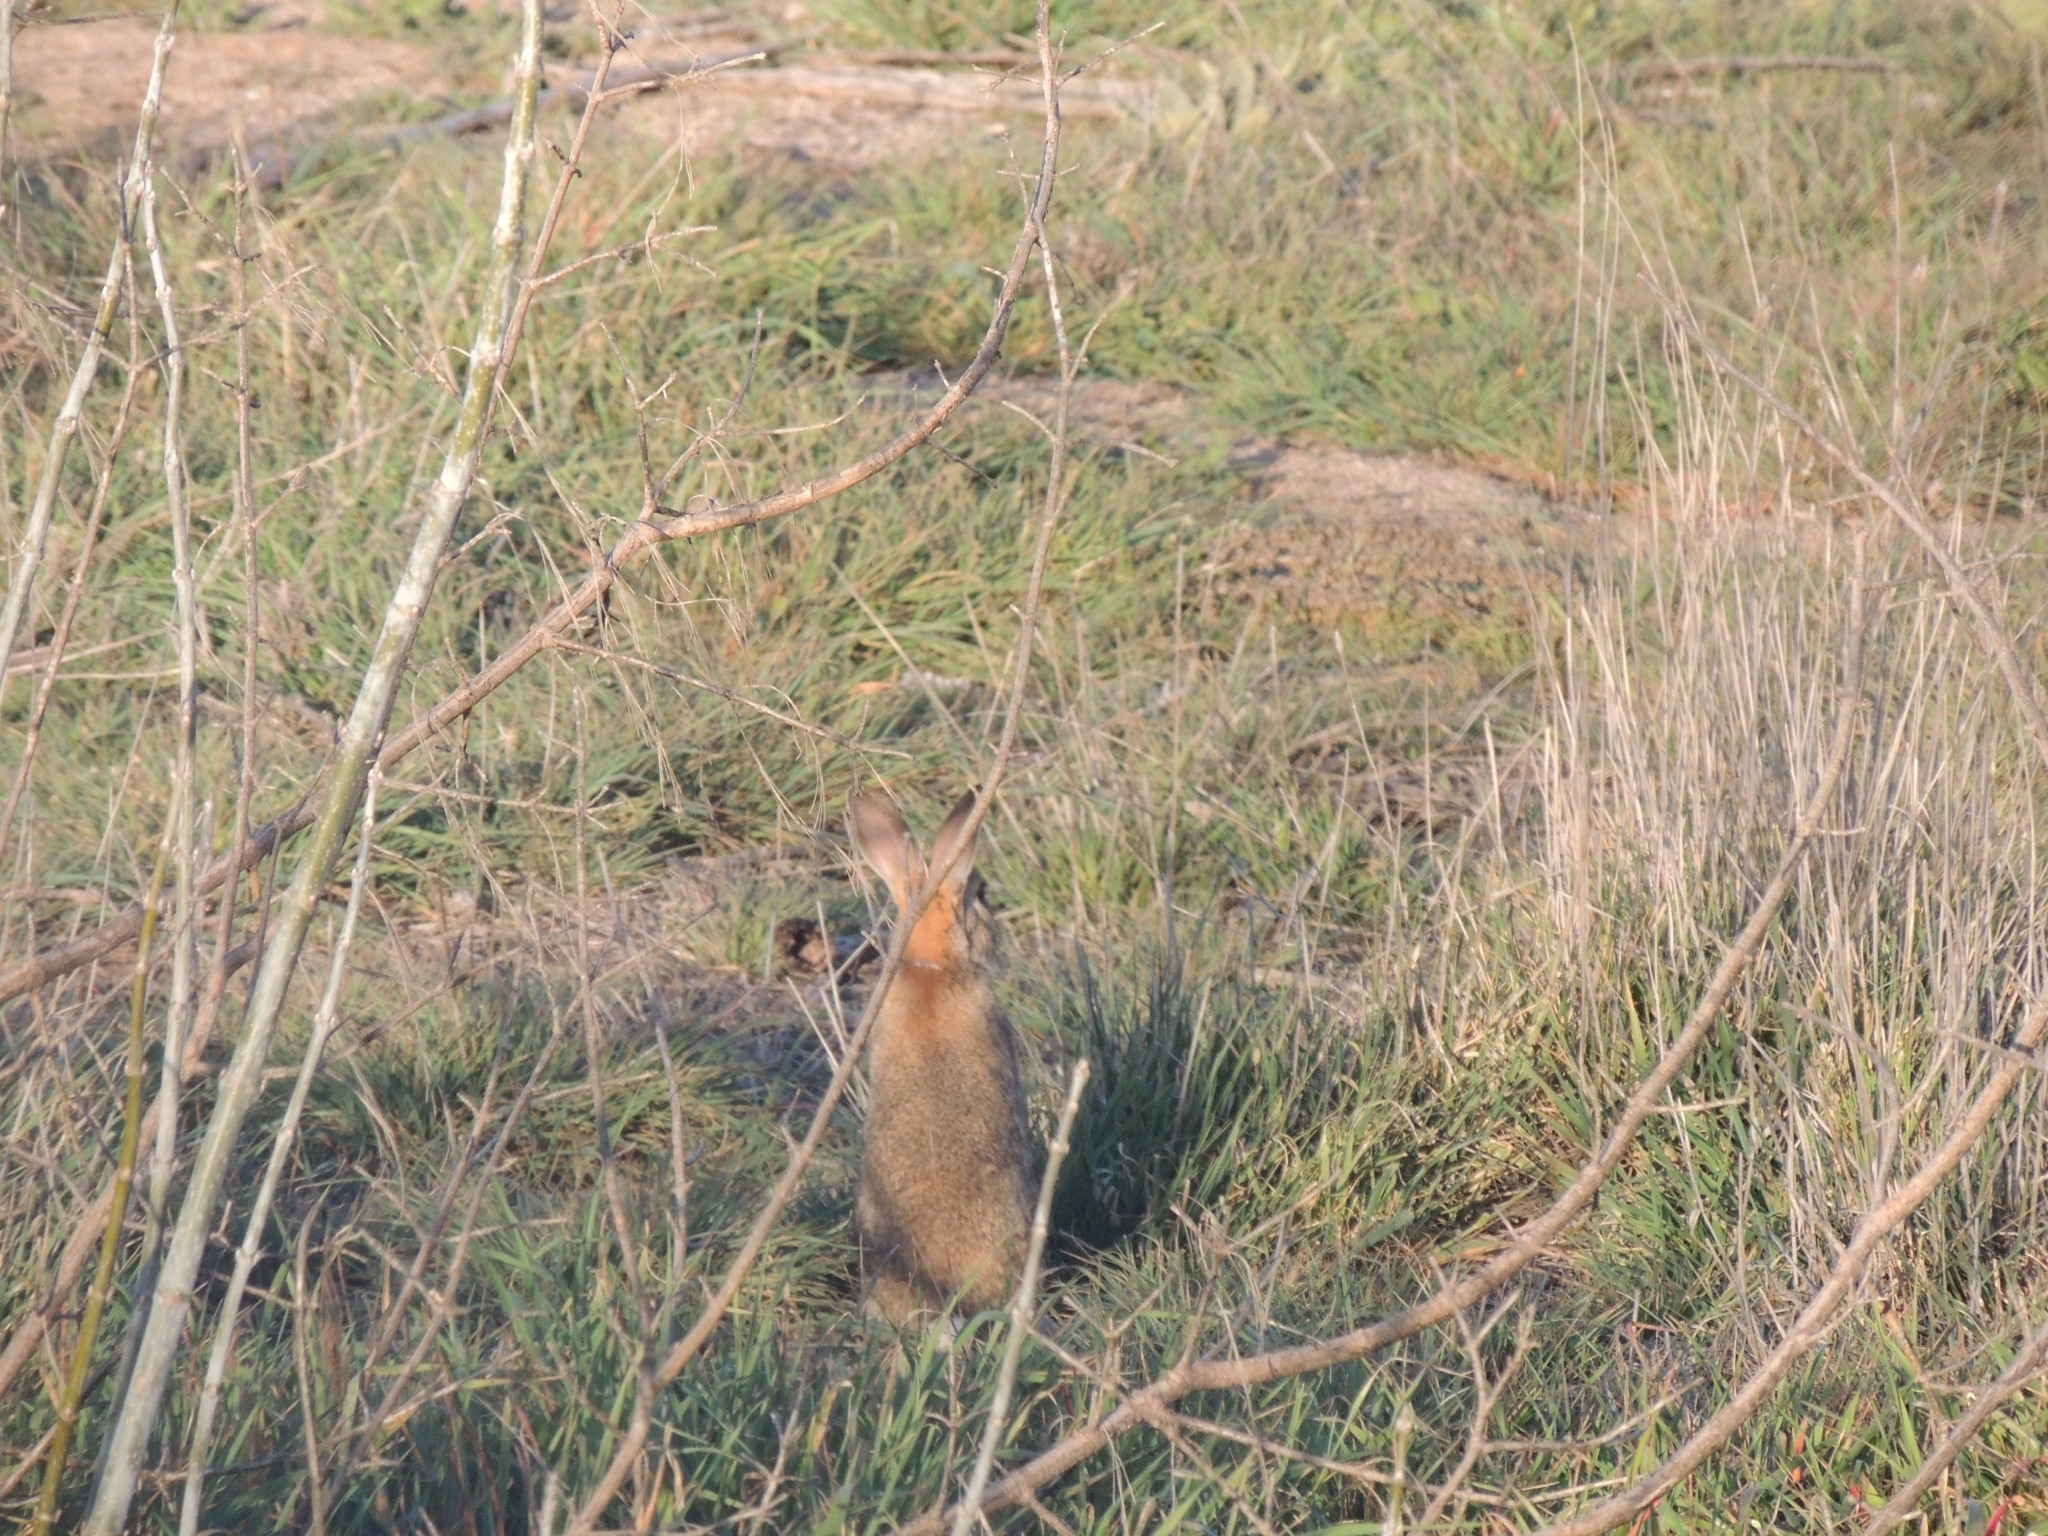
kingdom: Animalia
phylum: Chordata
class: Mammalia
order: Lagomorpha
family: Leporidae
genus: Oryctolagus
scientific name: Oryctolagus cuniculus
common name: European rabbit
